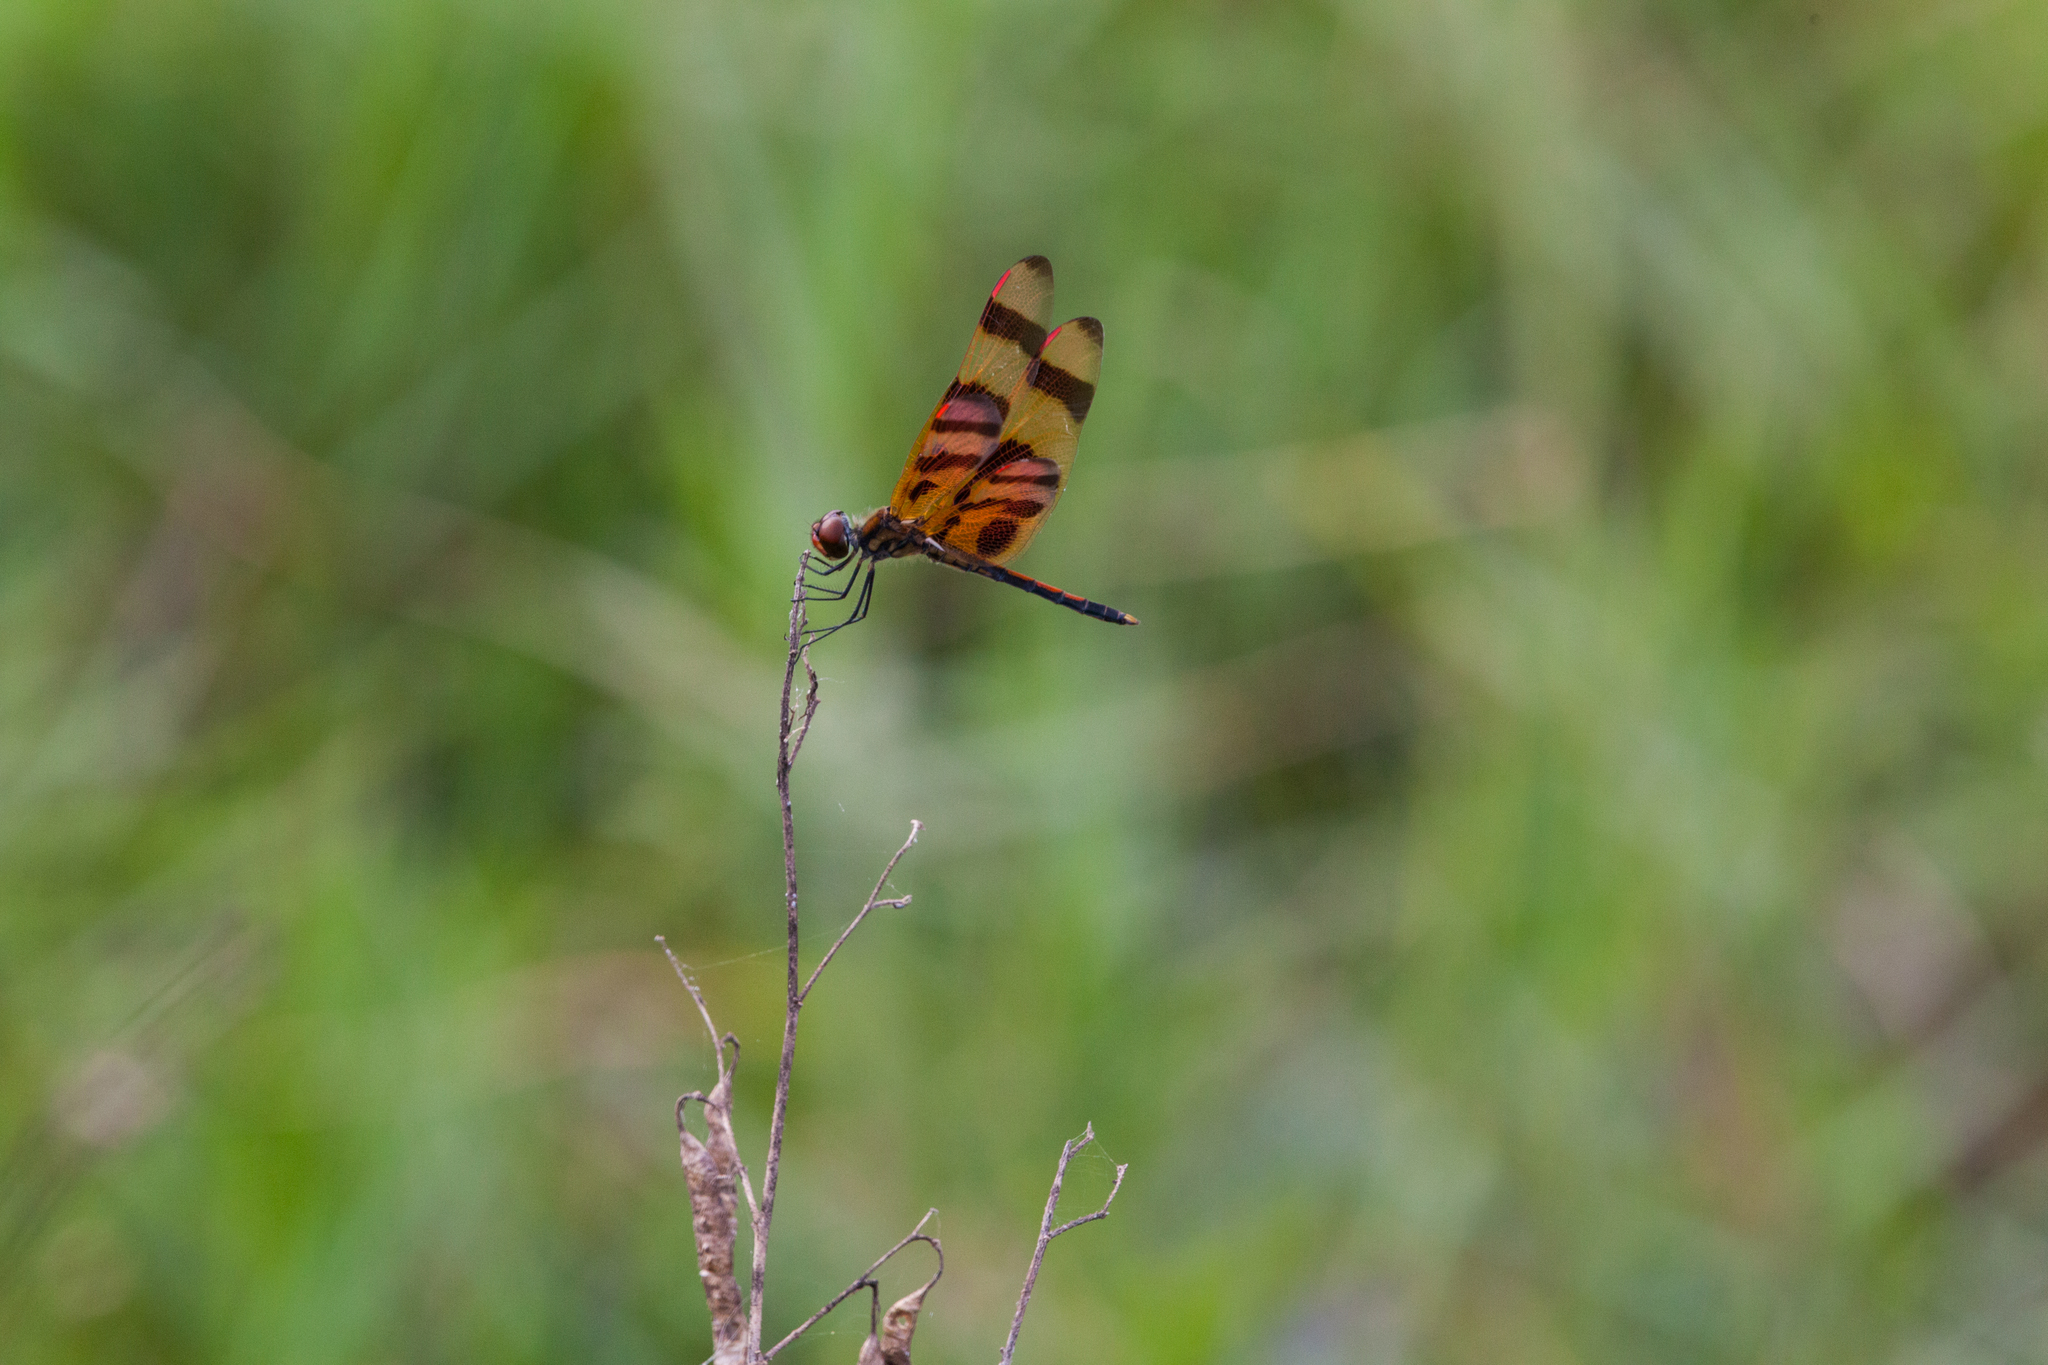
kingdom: Animalia
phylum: Arthropoda
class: Insecta
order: Odonata
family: Libellulidae
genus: Celithemis
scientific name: Celithemis eponina
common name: Halloween pennant
